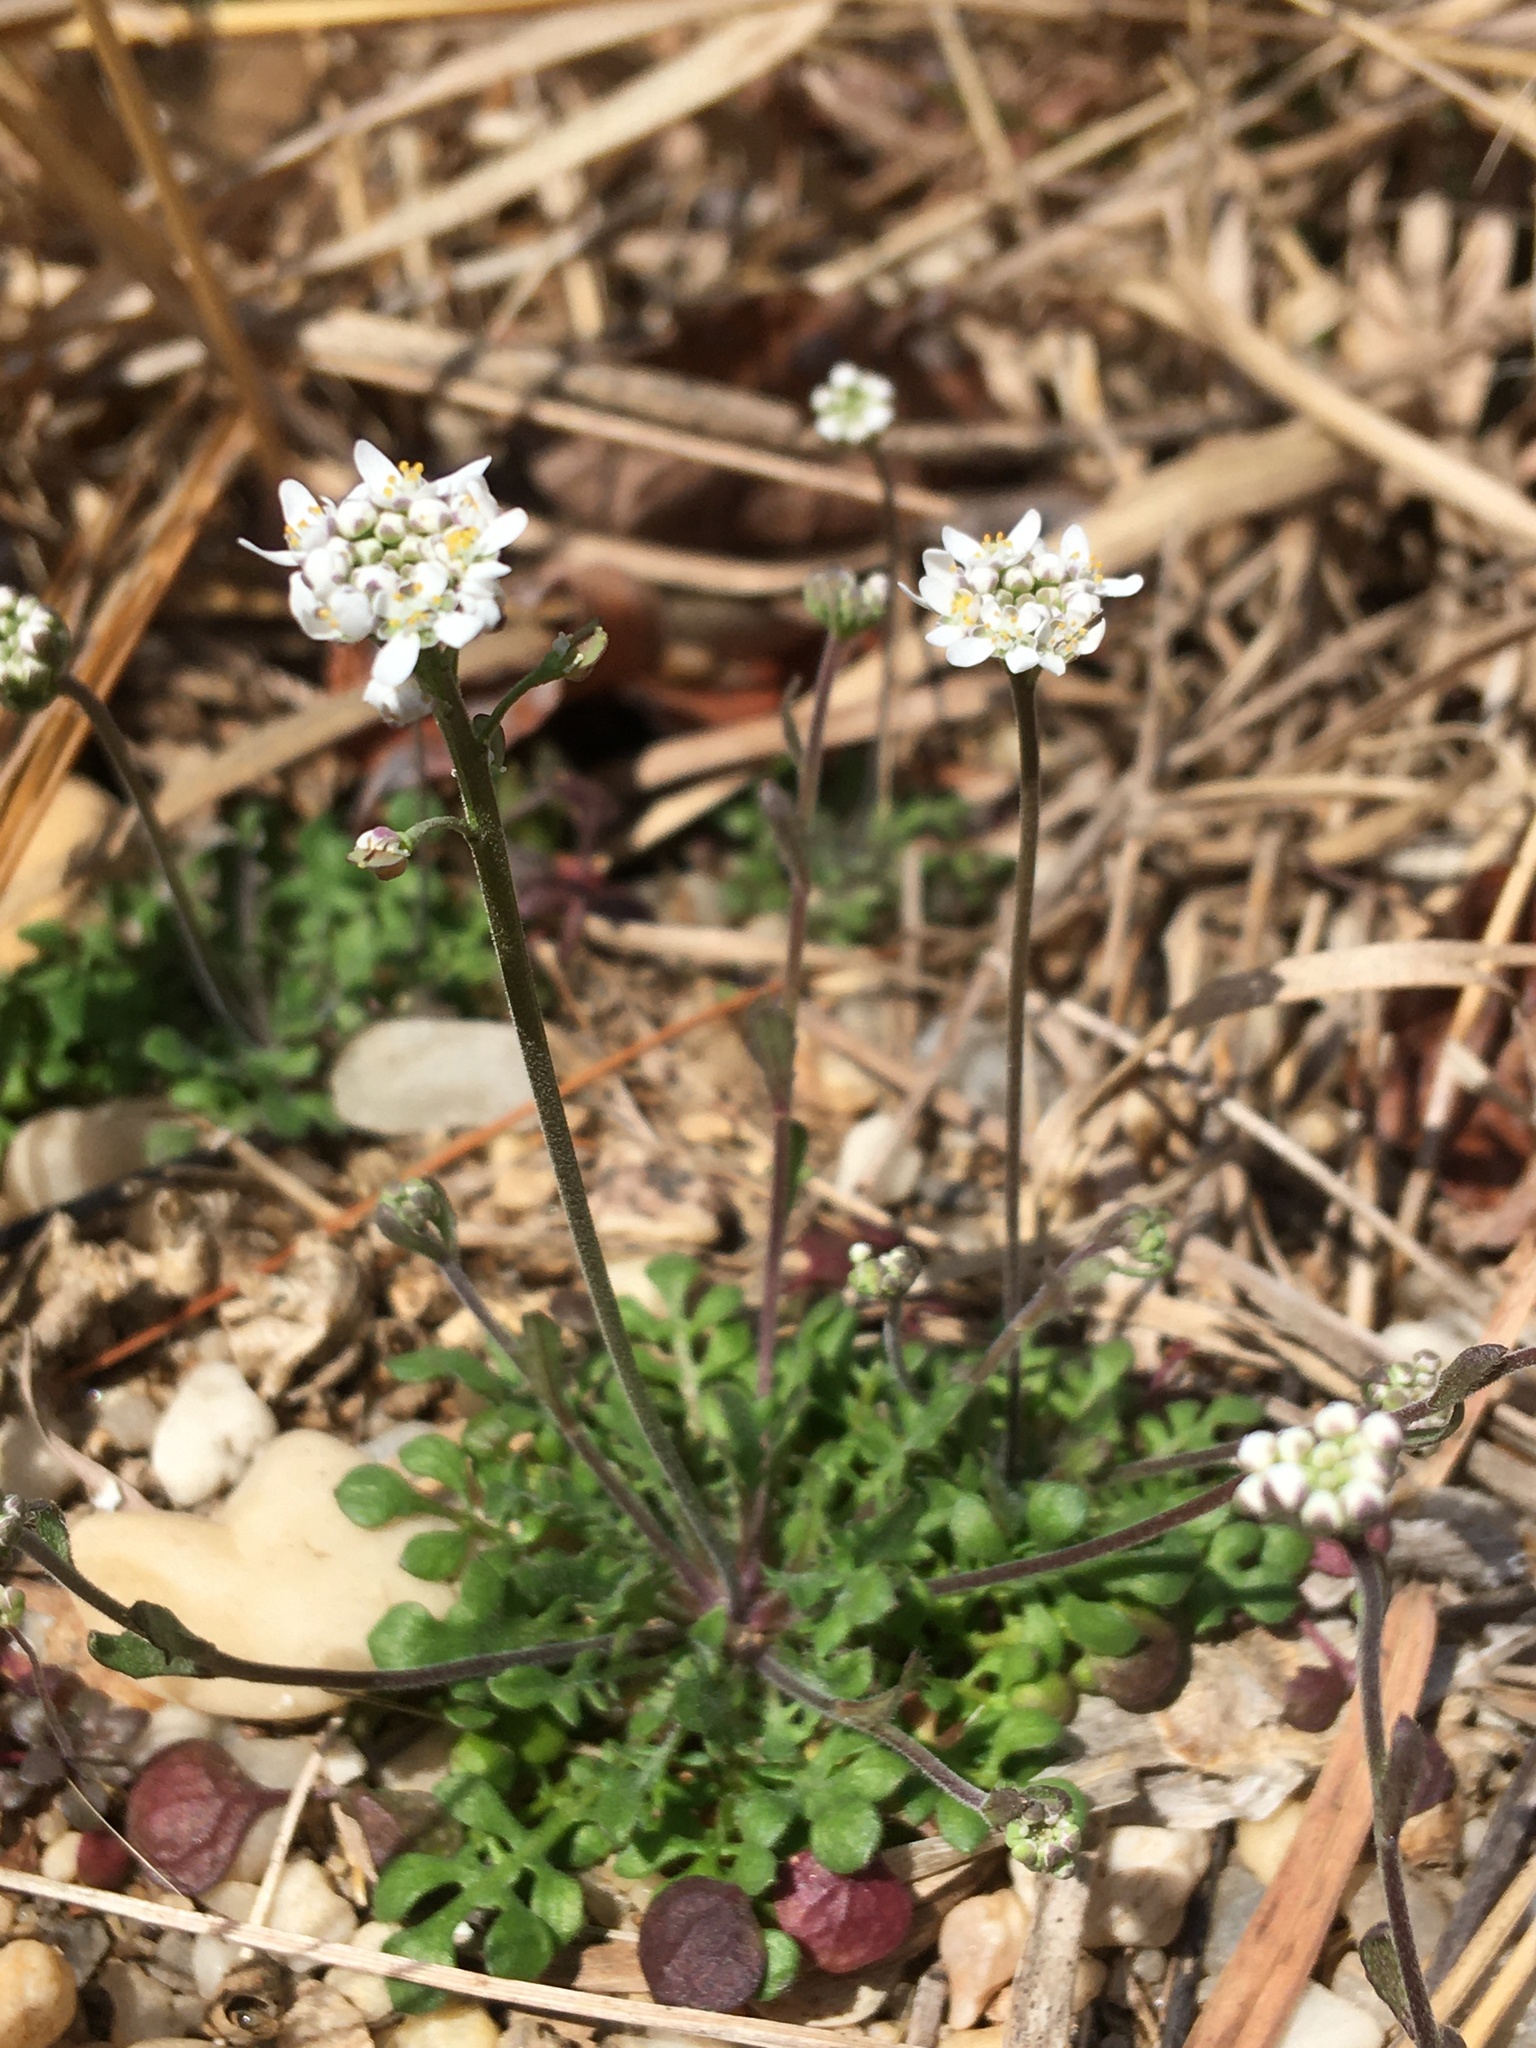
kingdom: Plantae
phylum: Tracheophyta
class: Magnoliopsida
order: Brassicales
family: Brassicaceae
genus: Teesdalia
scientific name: Teesdalia nudicaulis
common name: Shepherd's cress
